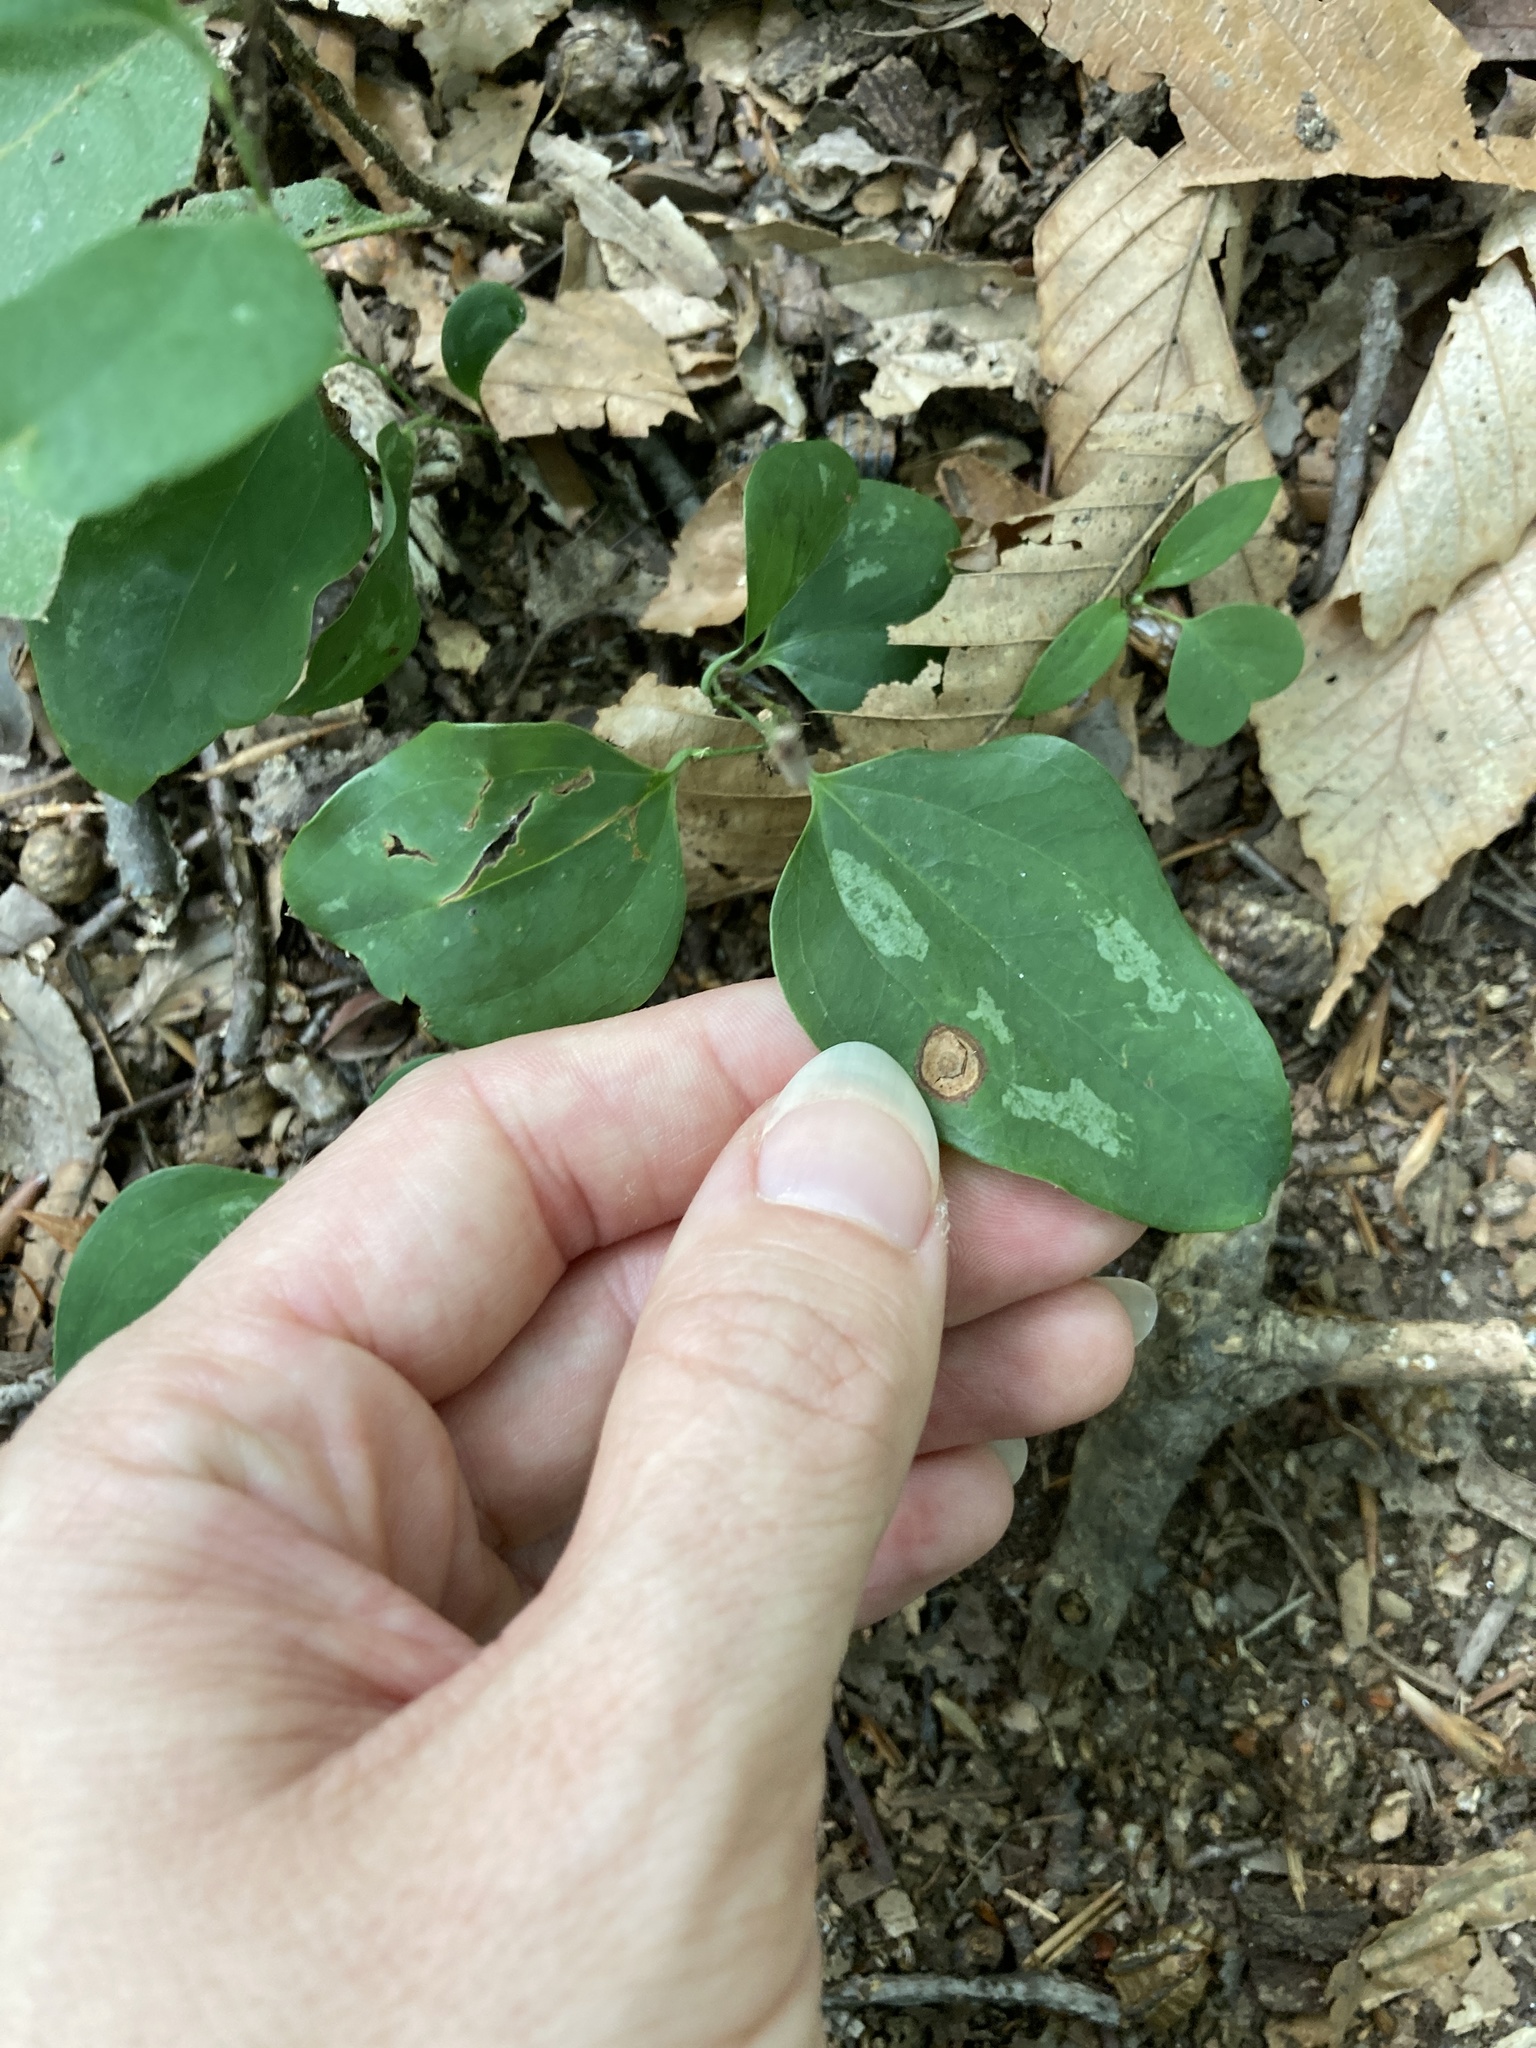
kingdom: Plantae
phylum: Tracheophyta
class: Liliopsida
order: Liliales
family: Smilacaceae
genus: Smilax
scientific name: Smilax glauca
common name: Cat greenbrier
